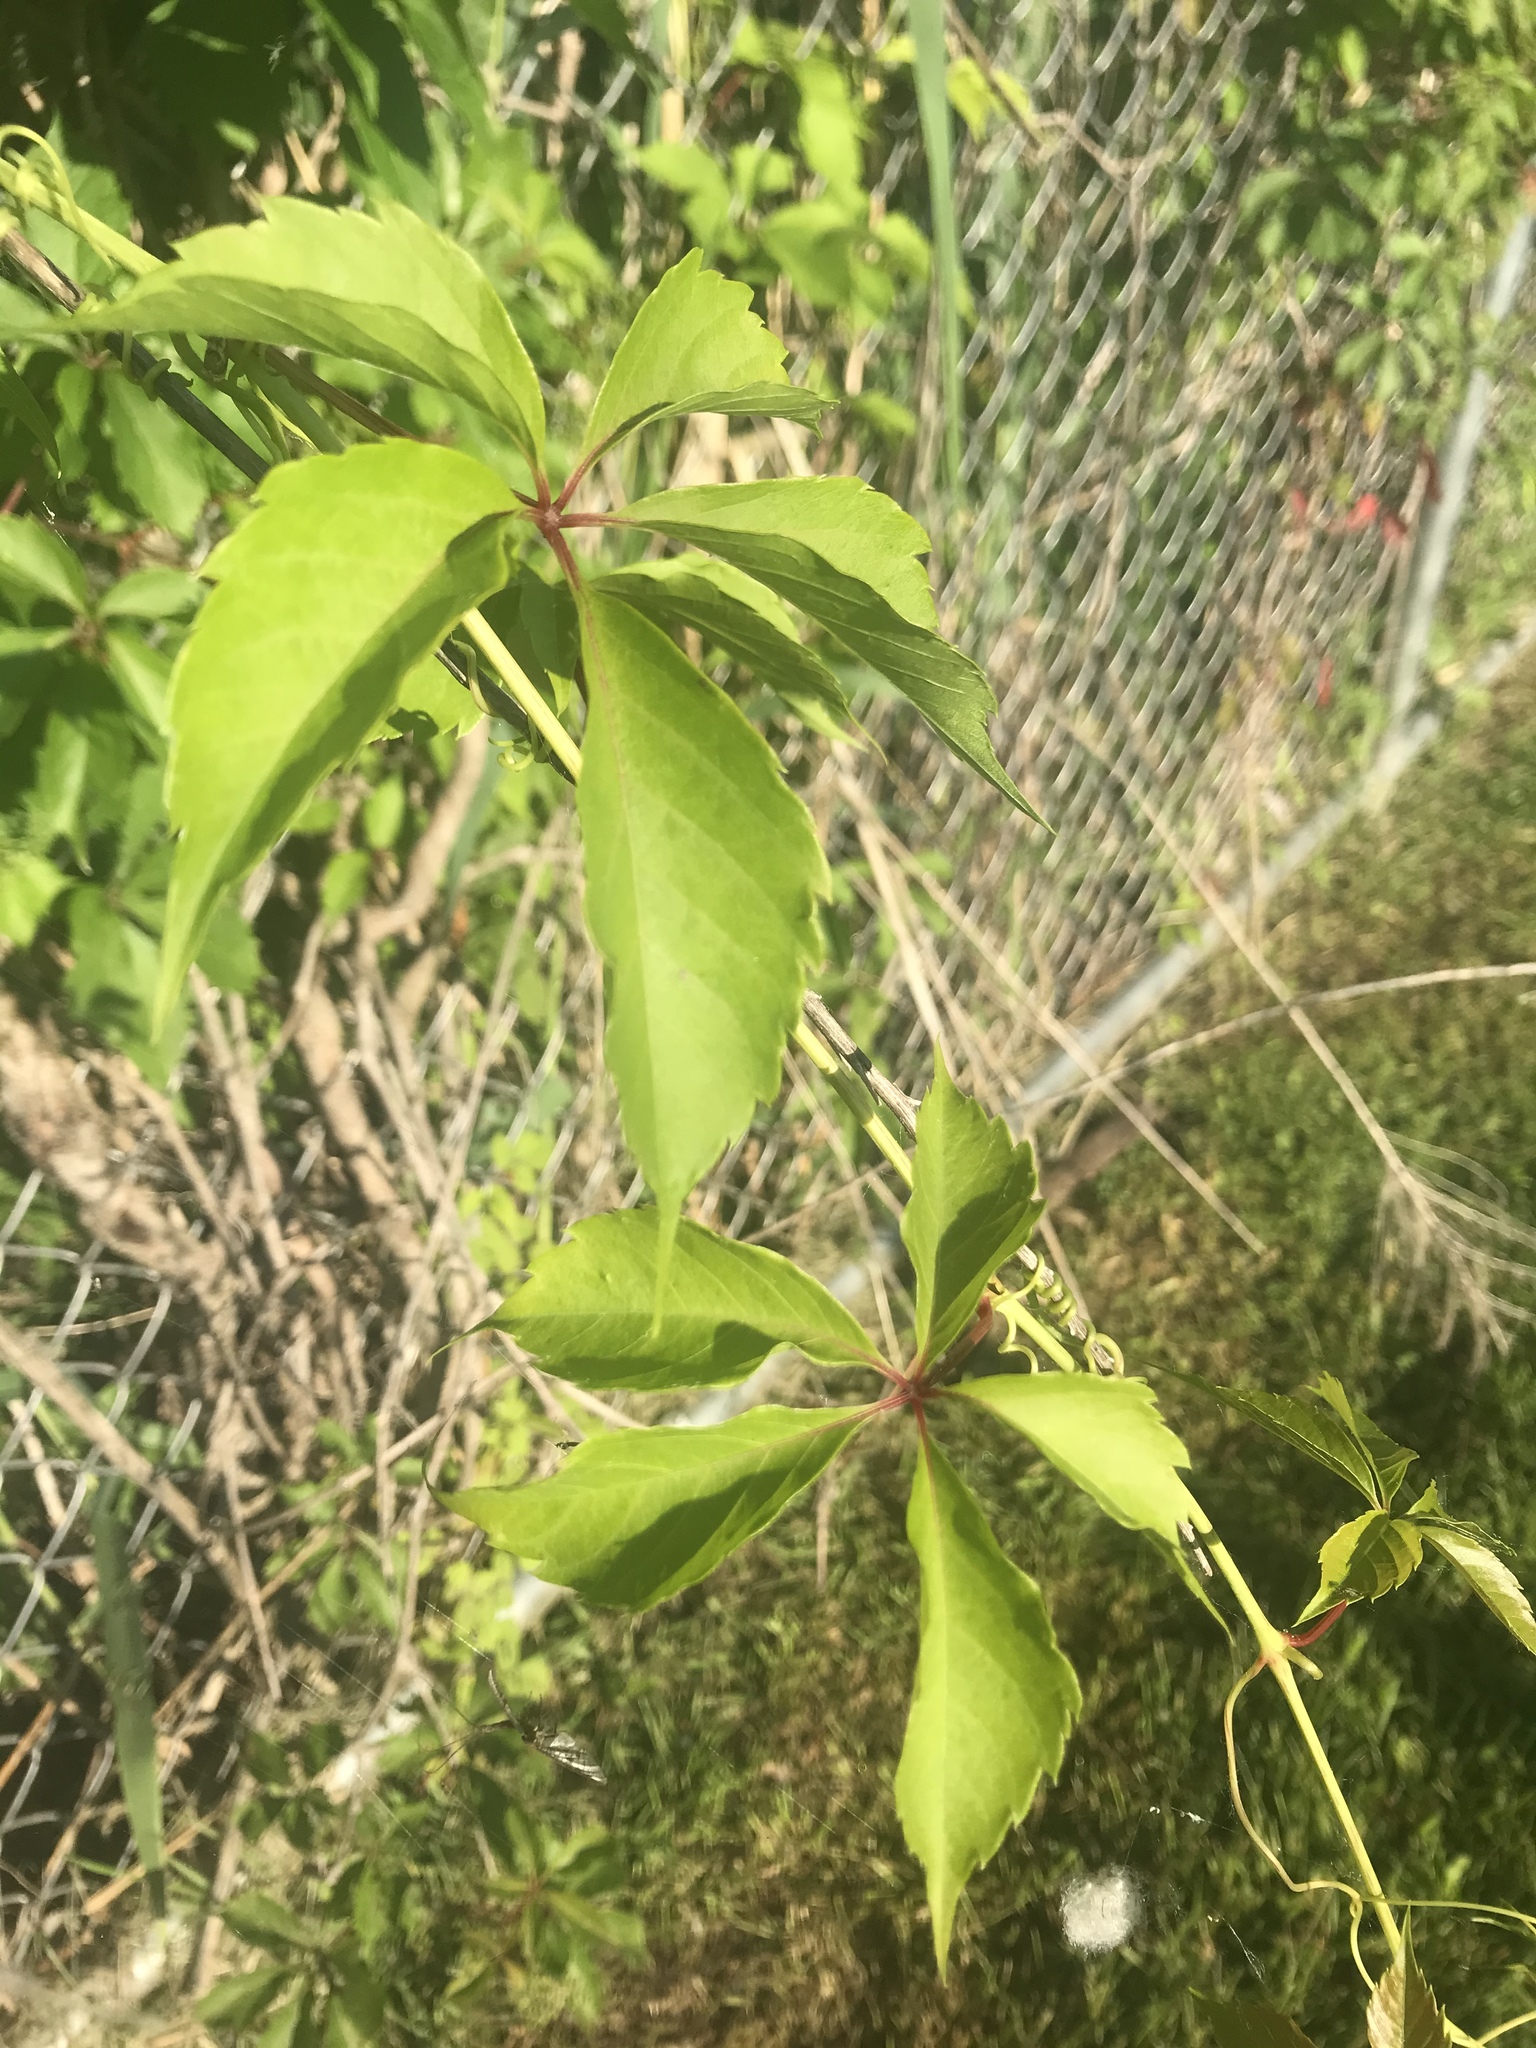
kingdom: Plantae
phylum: Tracheophyta
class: Magnoliopsida
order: Vitales
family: Vitaceae
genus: Parthenocissus
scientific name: Parthenocissus quinquefolia
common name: Virginia-creeper
